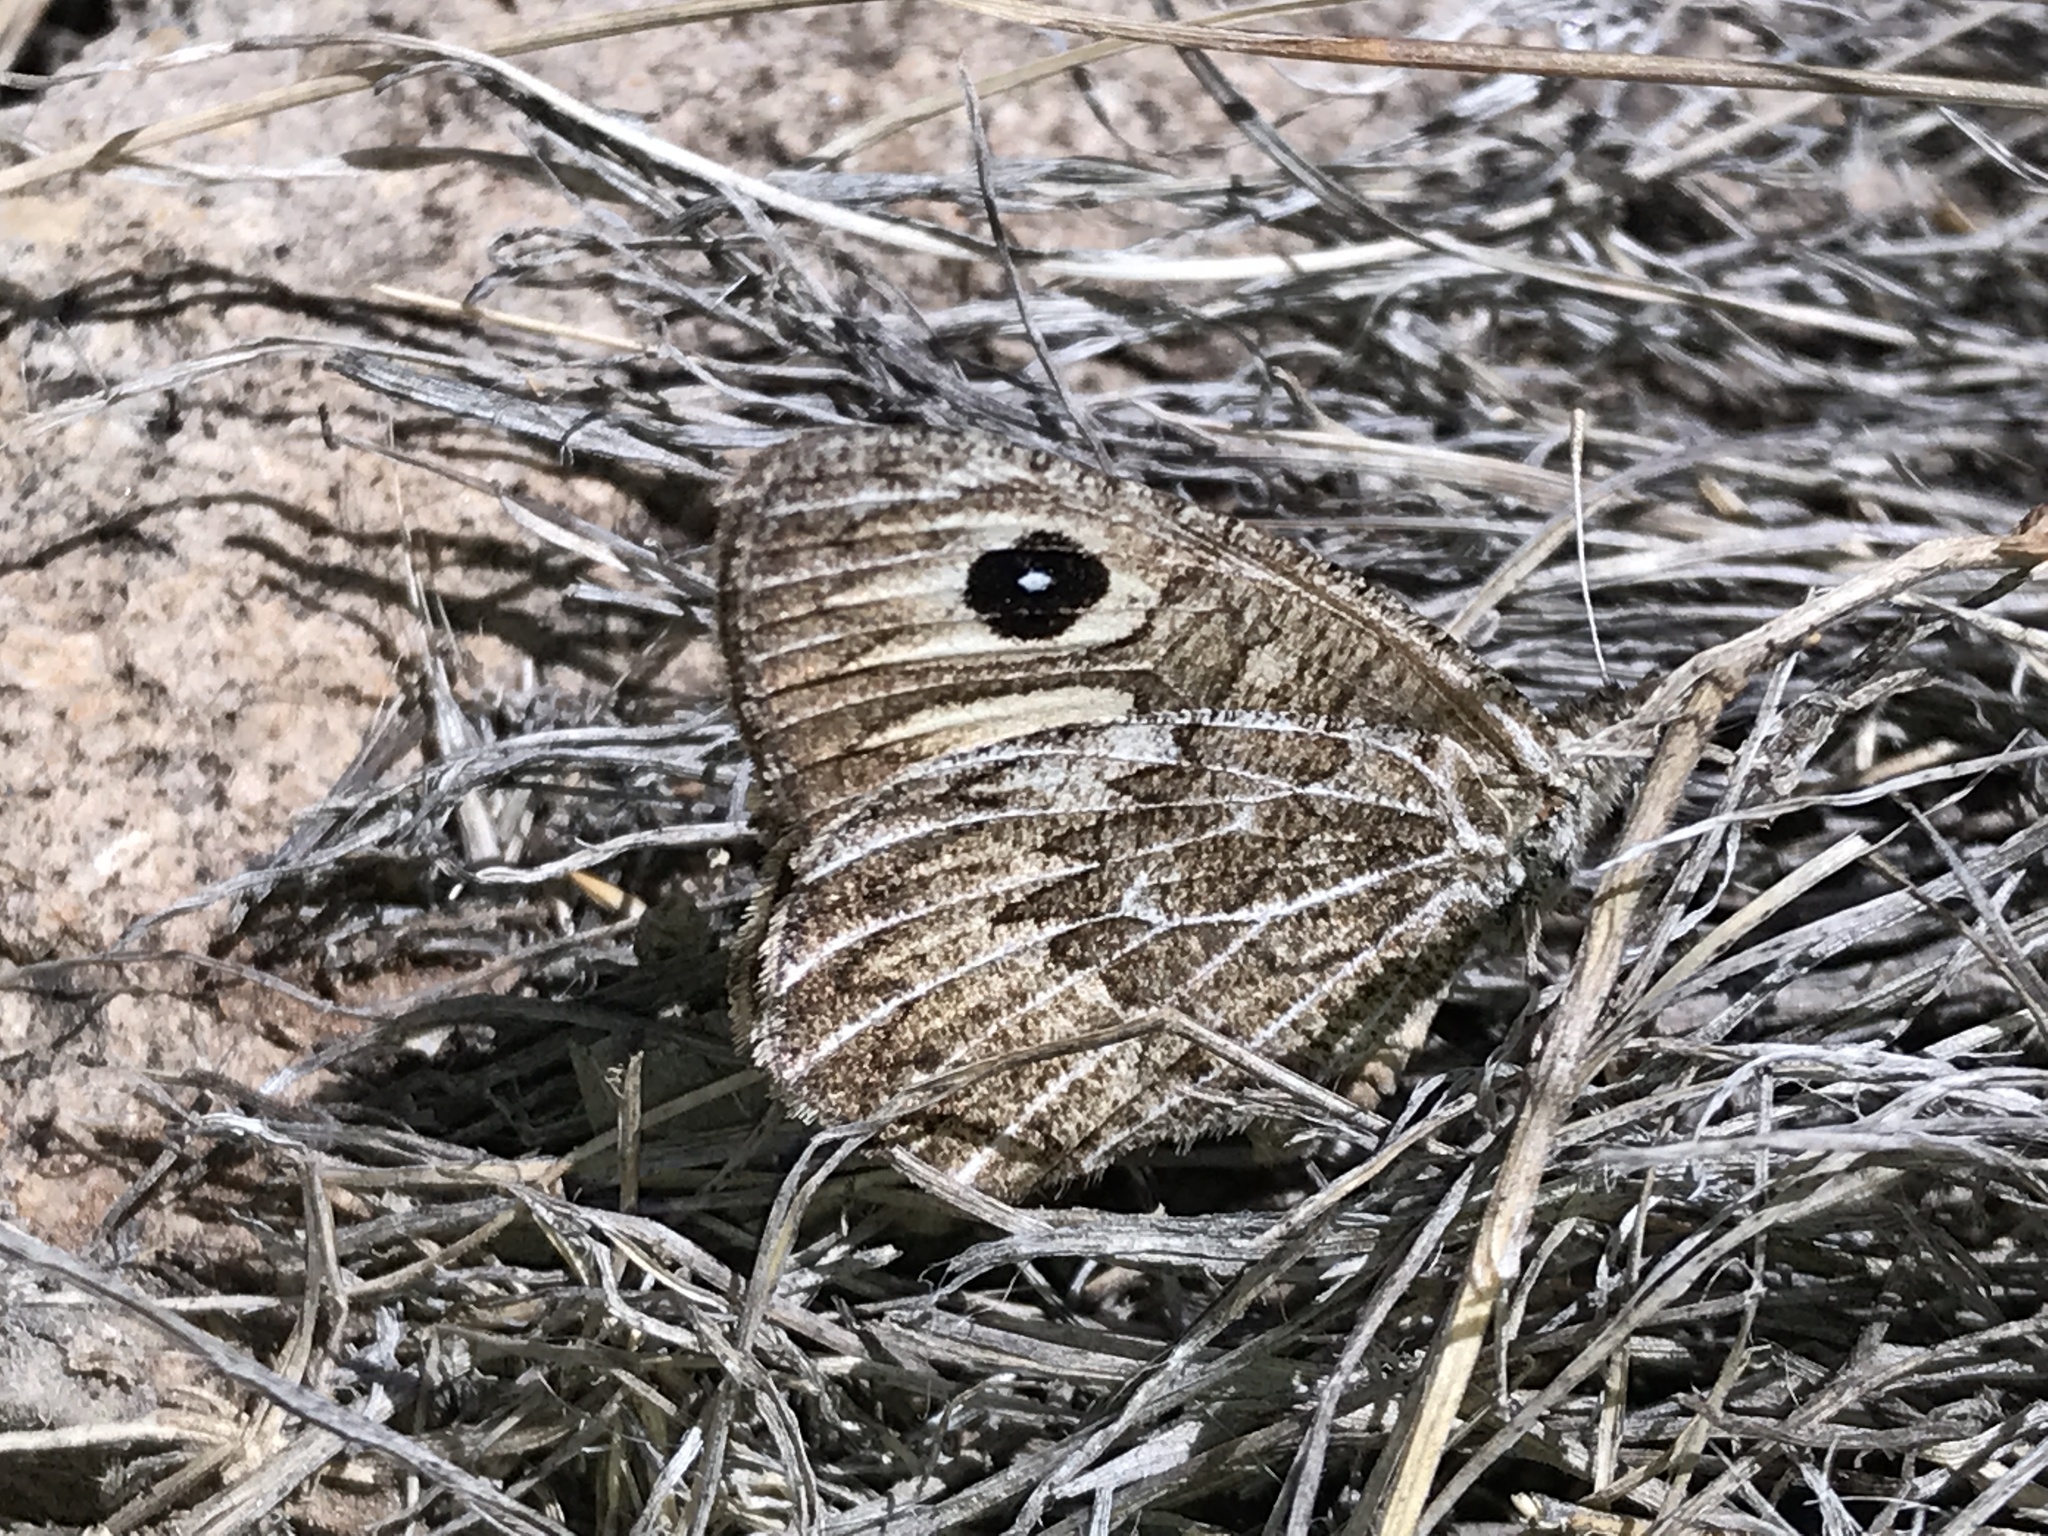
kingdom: Animalia
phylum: Arthropoda
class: Insecta
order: Lepidoptera
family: Nymphalidae
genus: Neominois
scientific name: Neominois ridingsii
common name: Ridings' satyr
